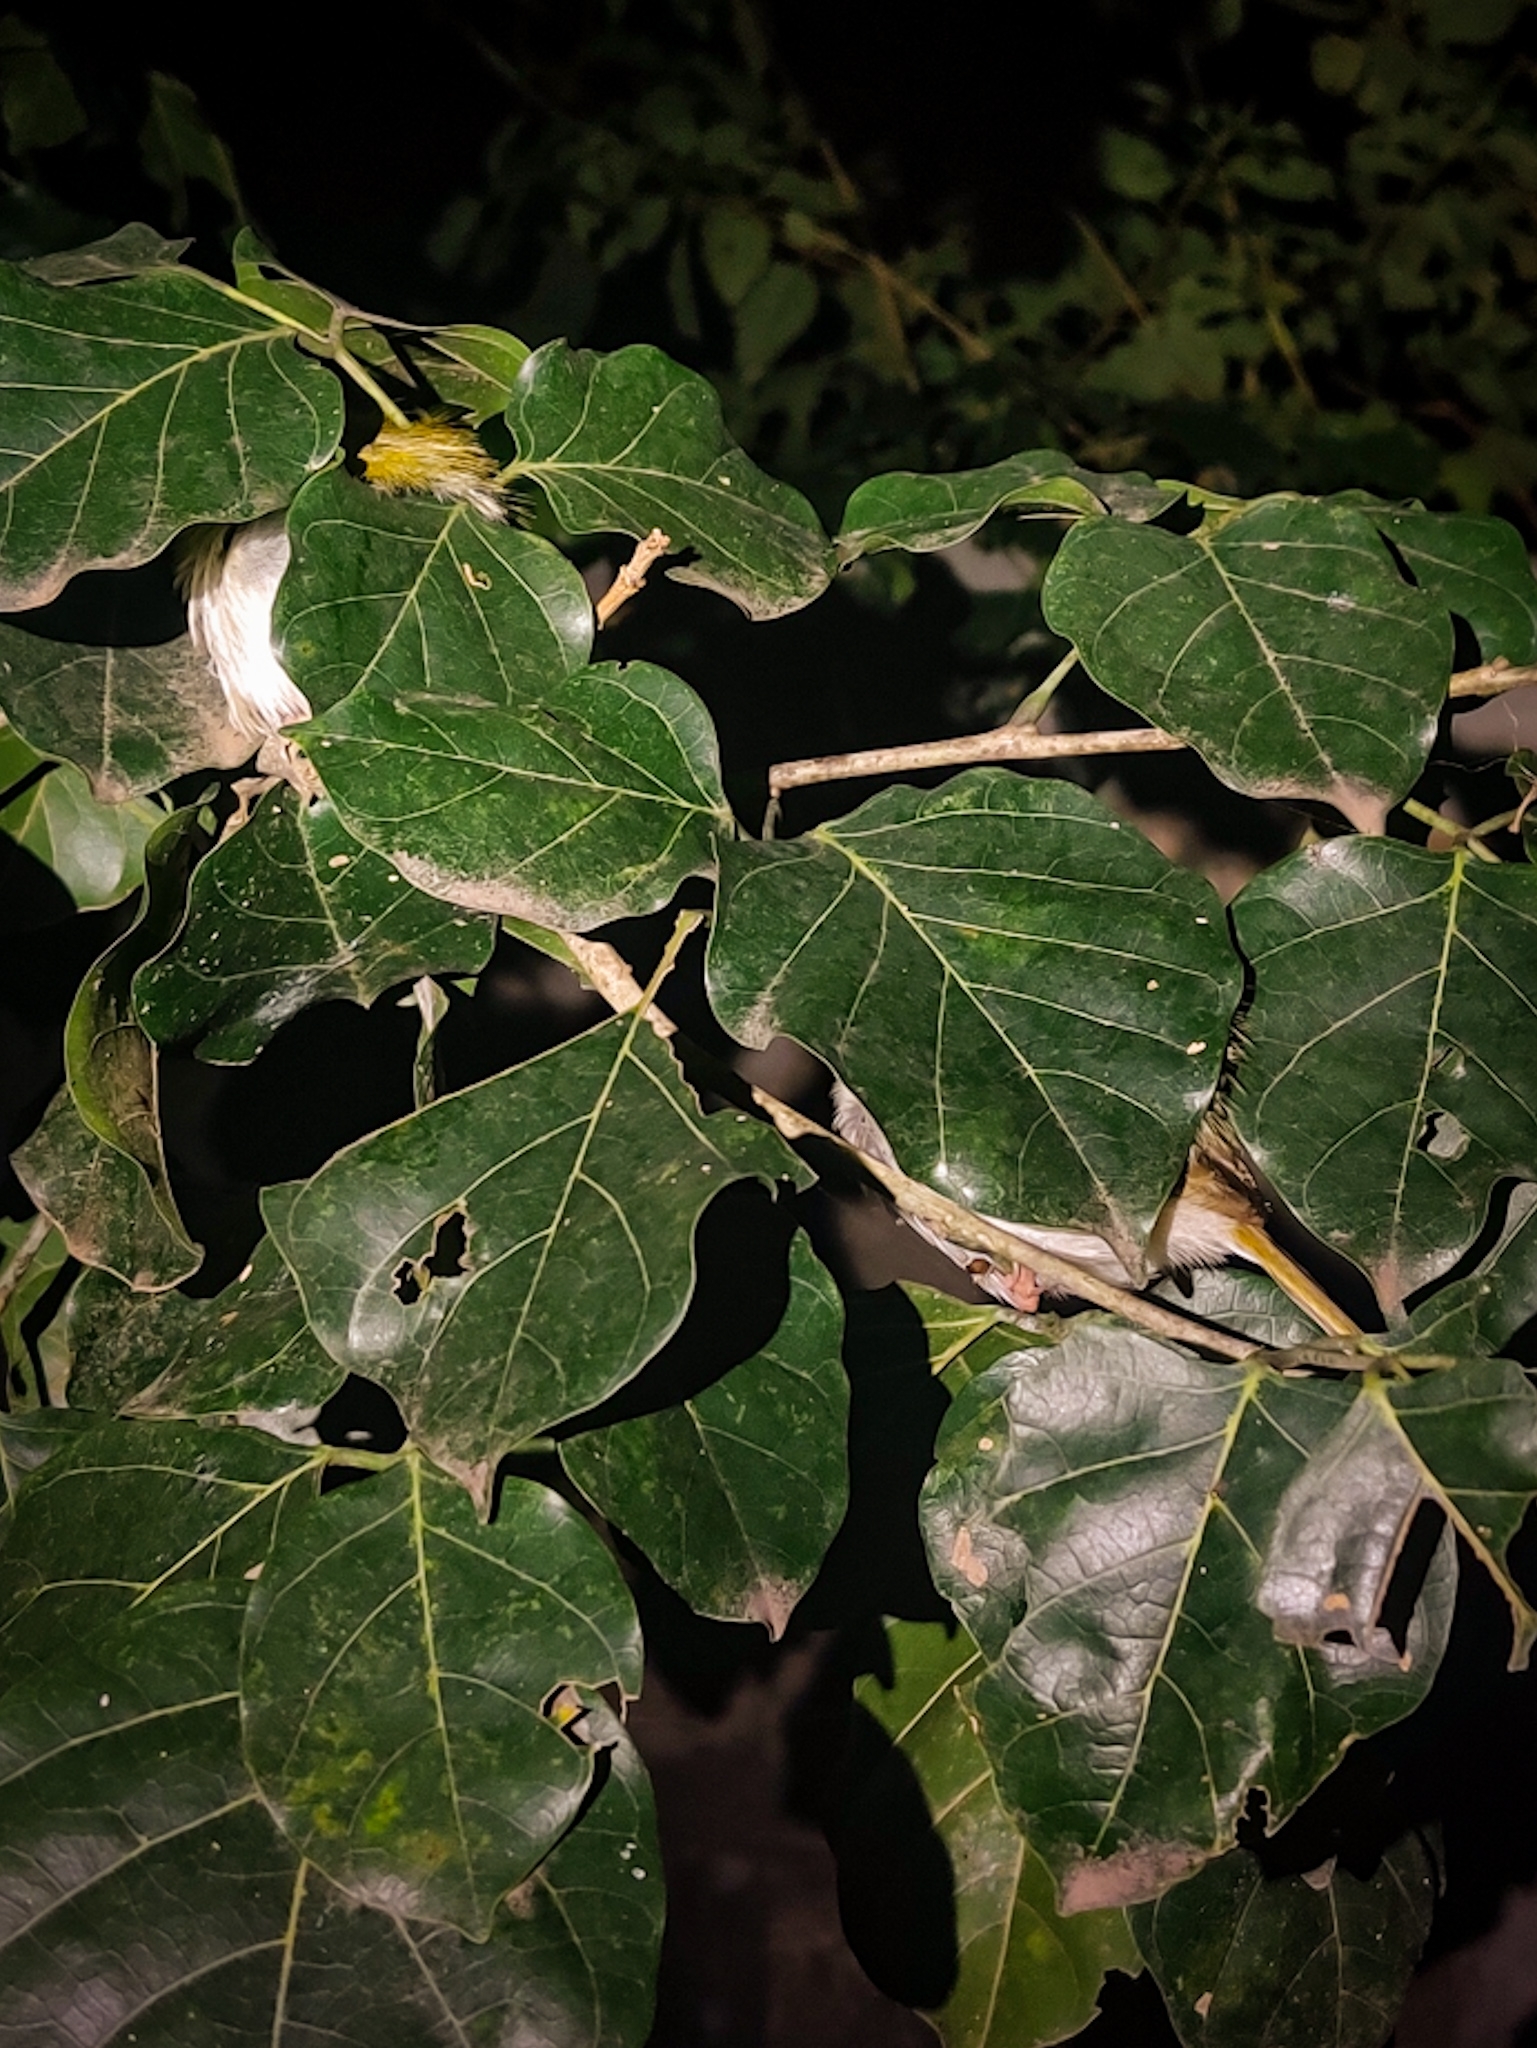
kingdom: Animalia
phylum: Chordata
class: Aves
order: Passeriformes
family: Cisticolidae
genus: Orthotomus
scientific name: Orthotomus sutorius
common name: Common tailorbird
